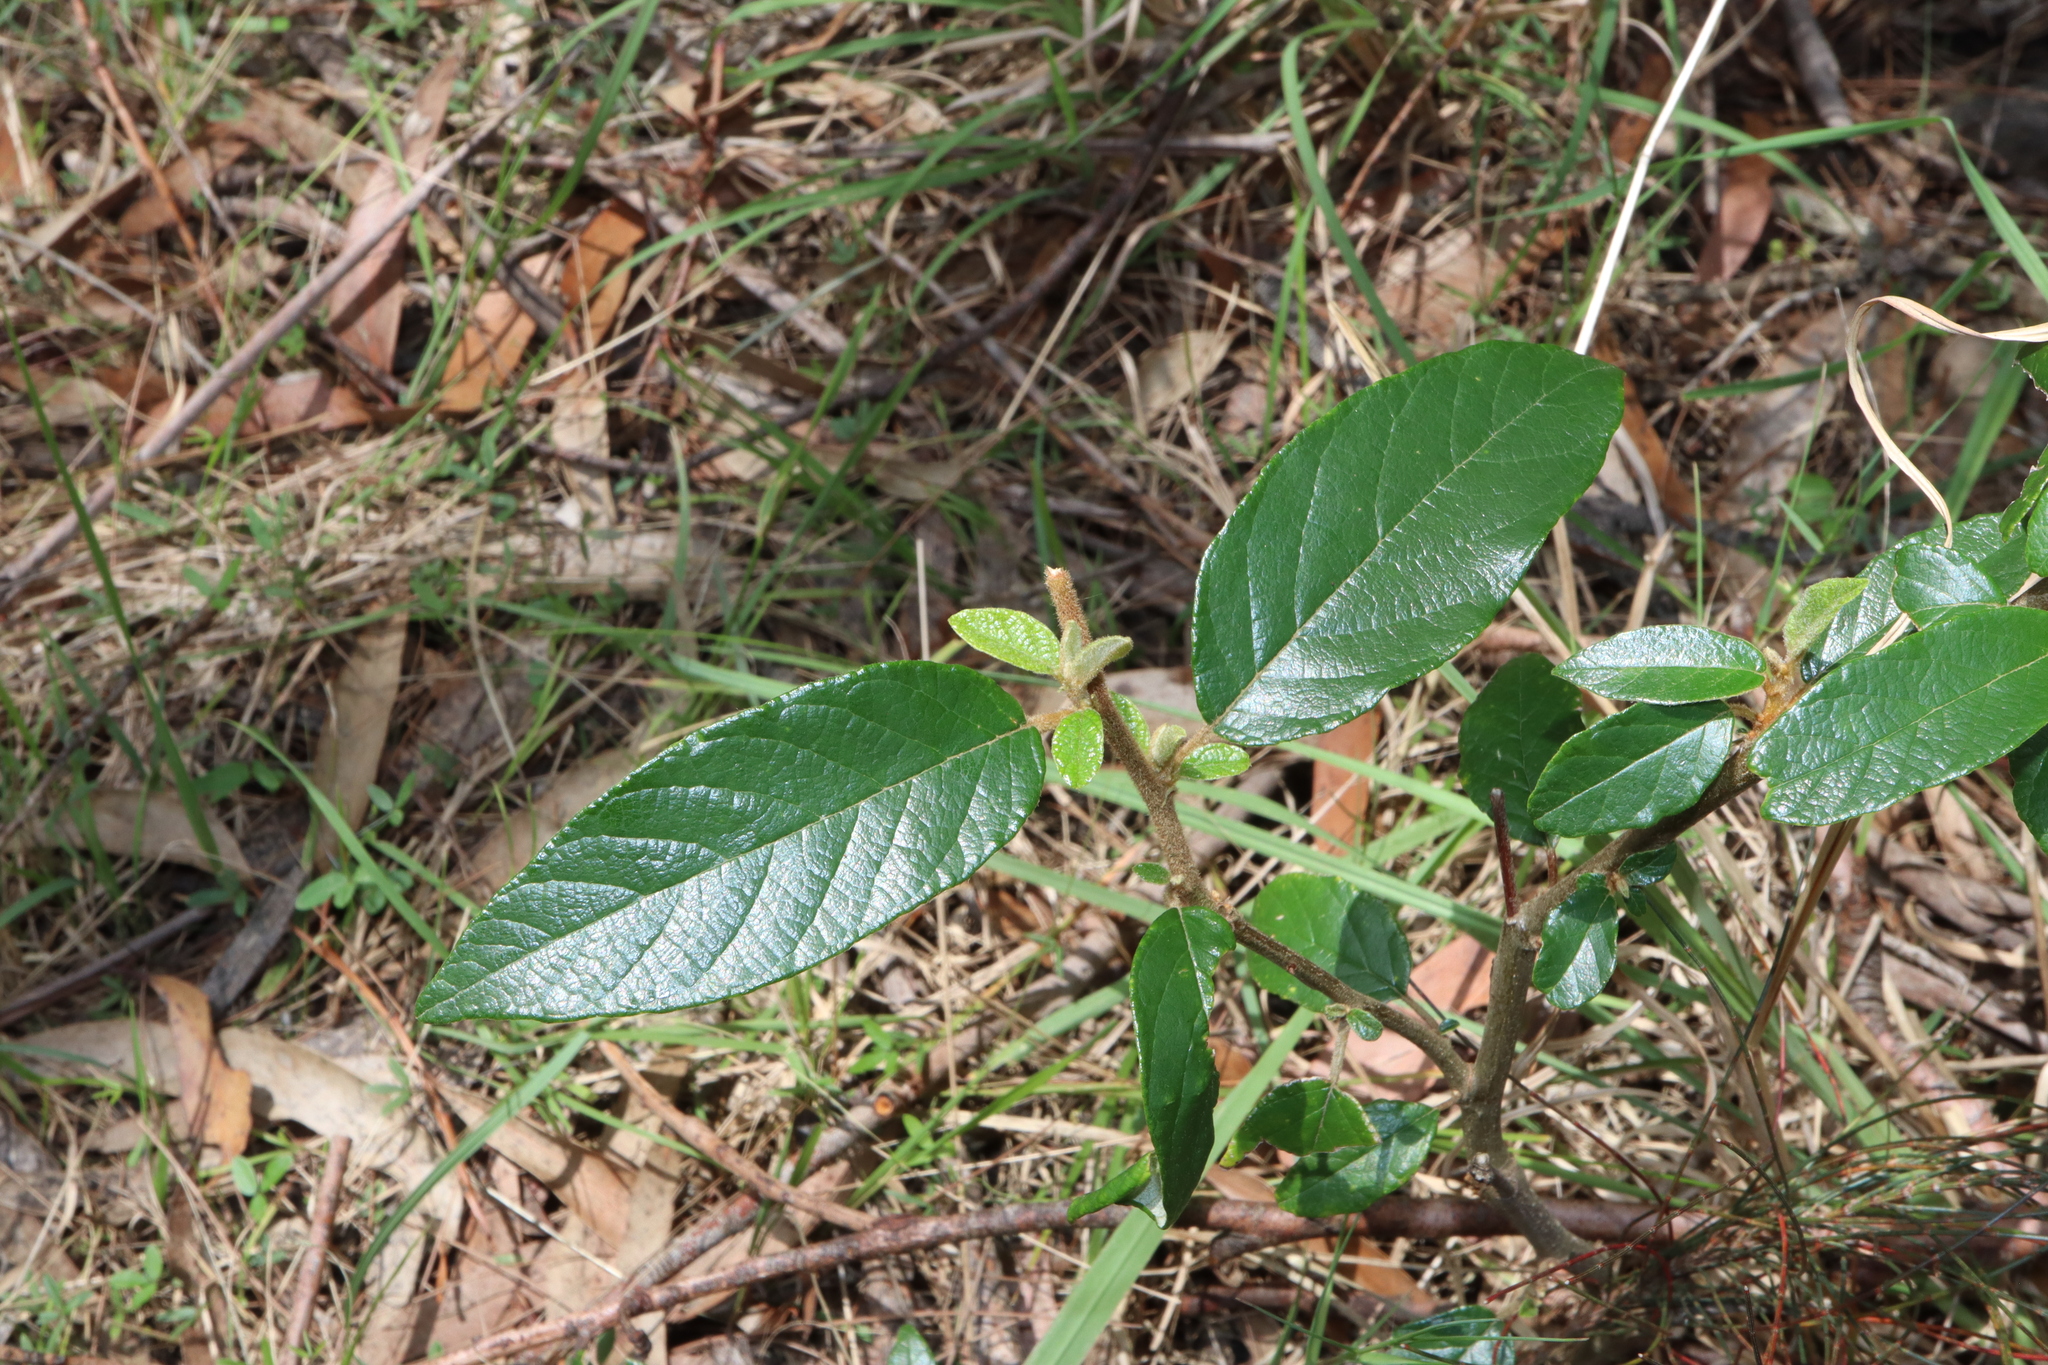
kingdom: Plantae
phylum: Tracheophyta
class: Magnoliopsida
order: Rosales
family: Rhamnaceae
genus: Alphitonia
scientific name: Alphitonia excelsa
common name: Red ash
